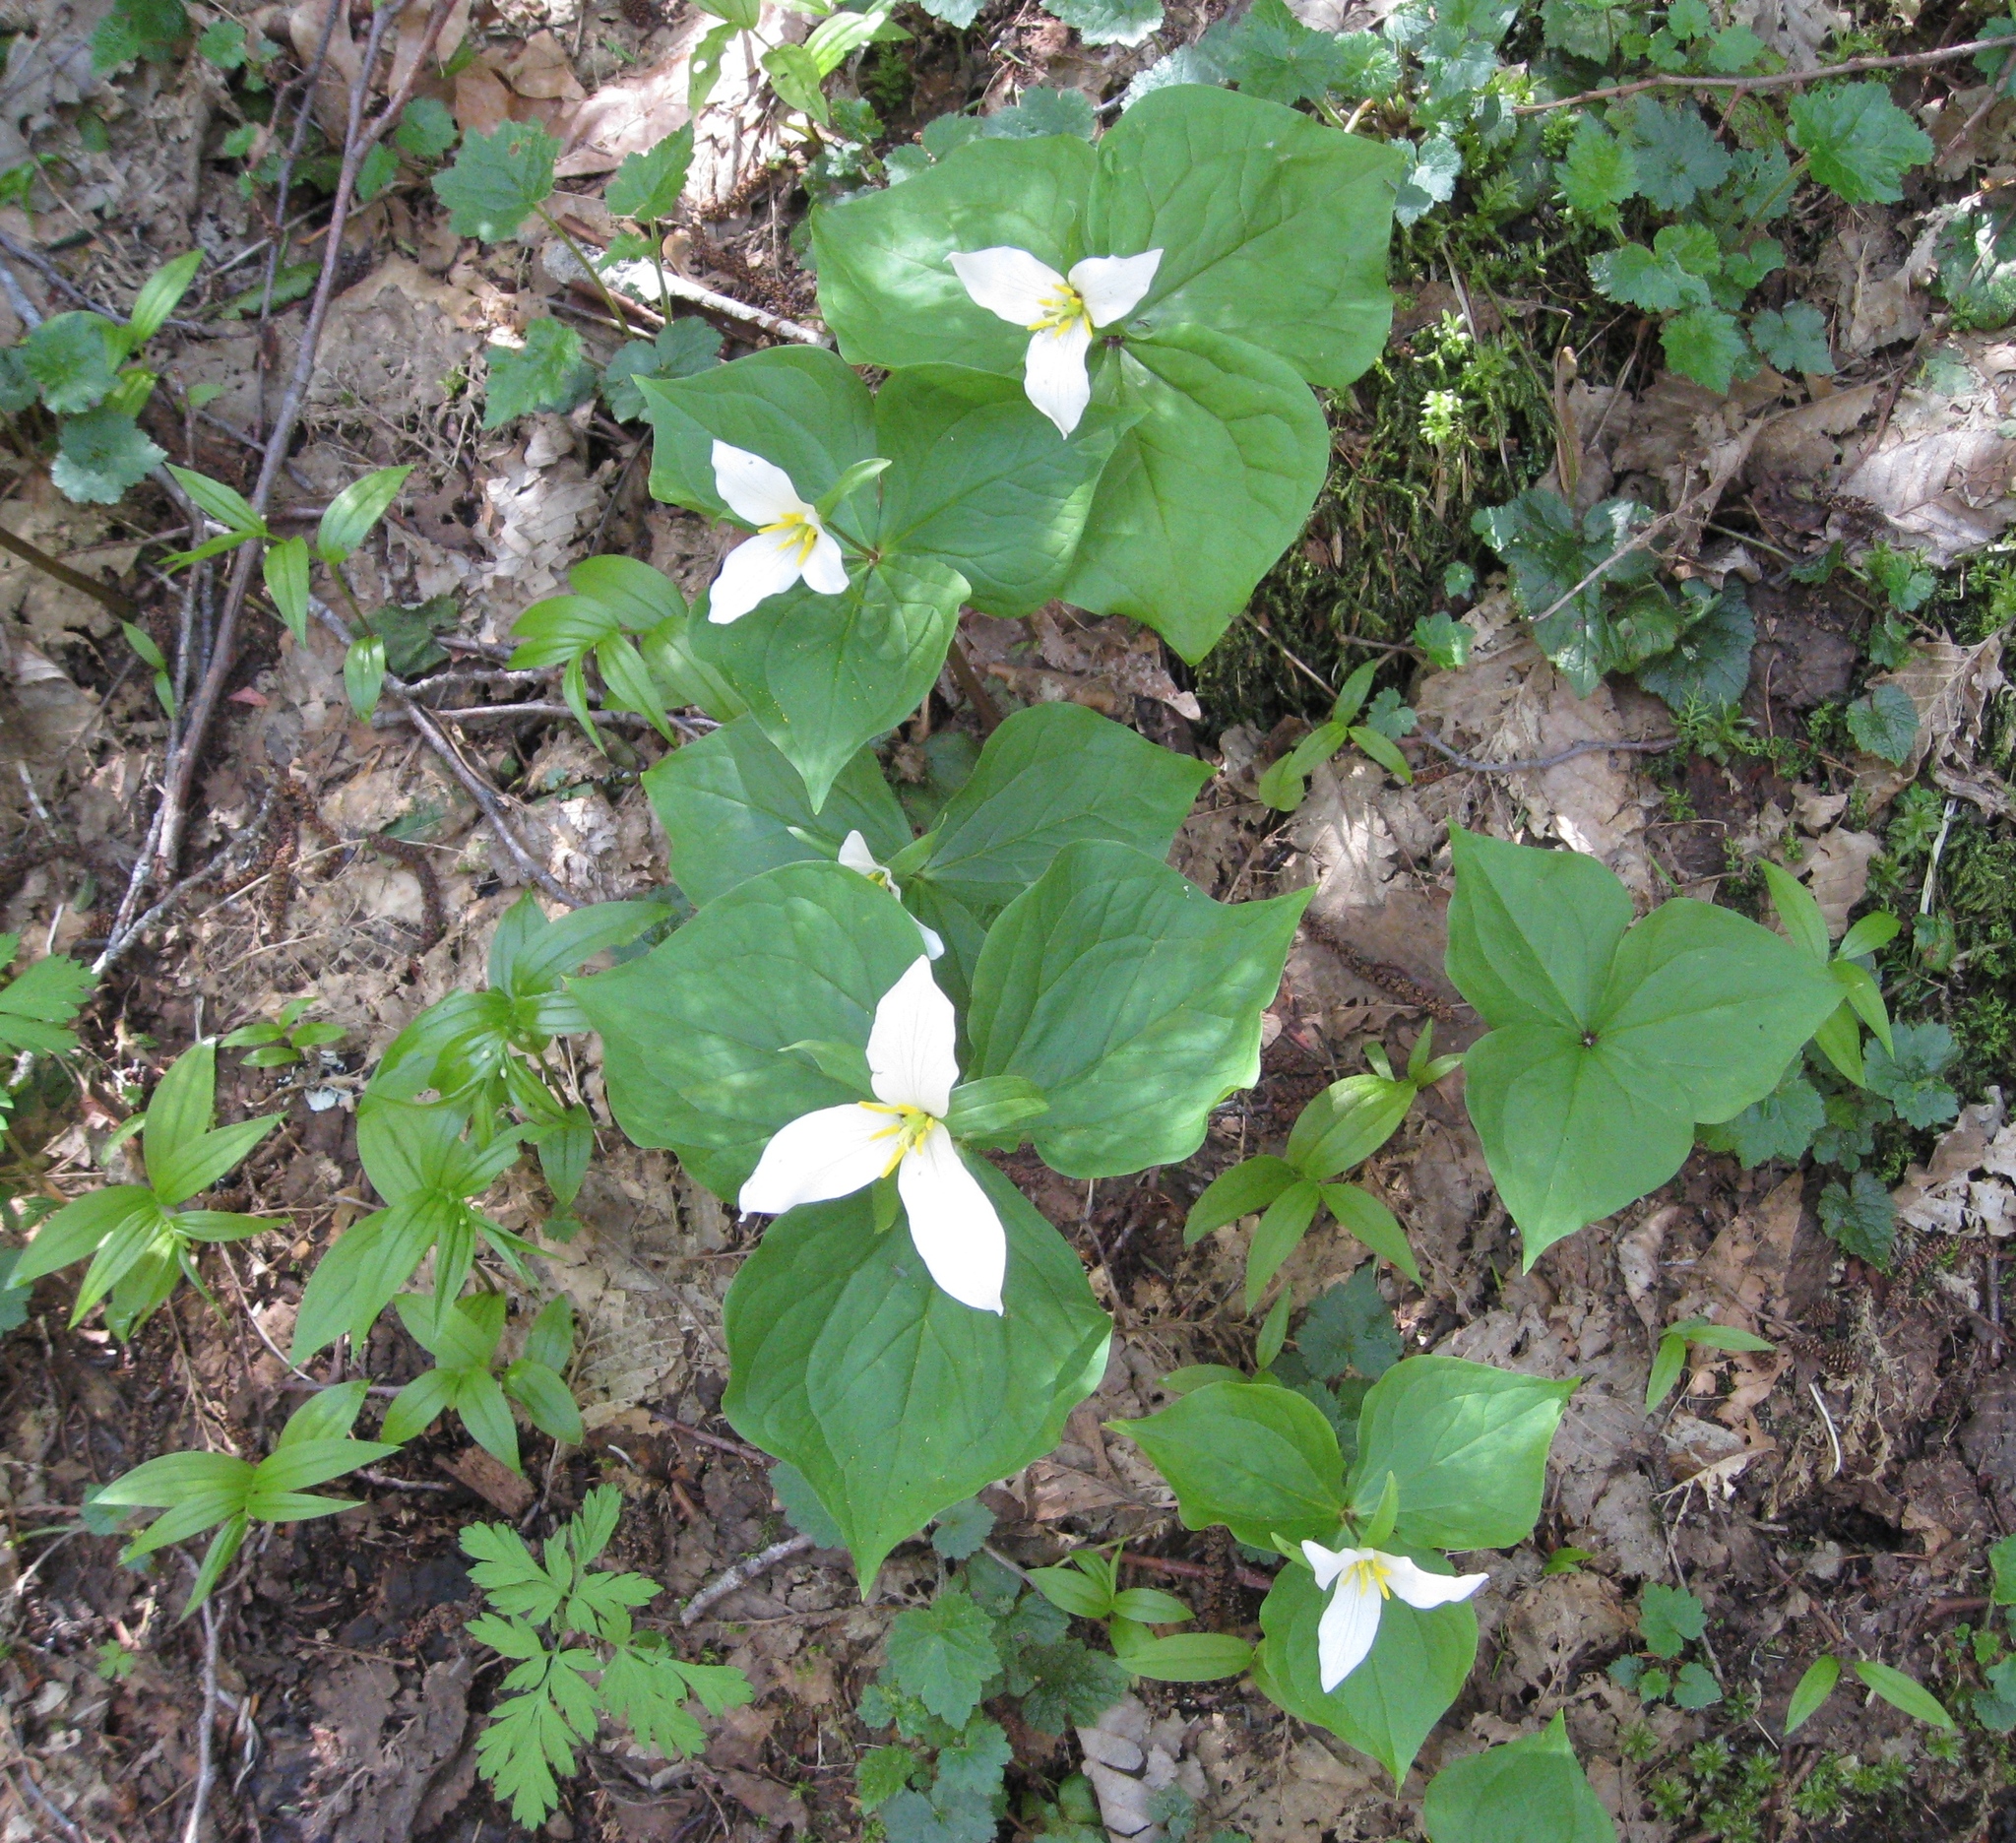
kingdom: Plantae
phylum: Tracheophyta
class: Liliopsida
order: Liliales
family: Melanthiaceae
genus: Trillium
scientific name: Trillium ovatum
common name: Pacific trillium
